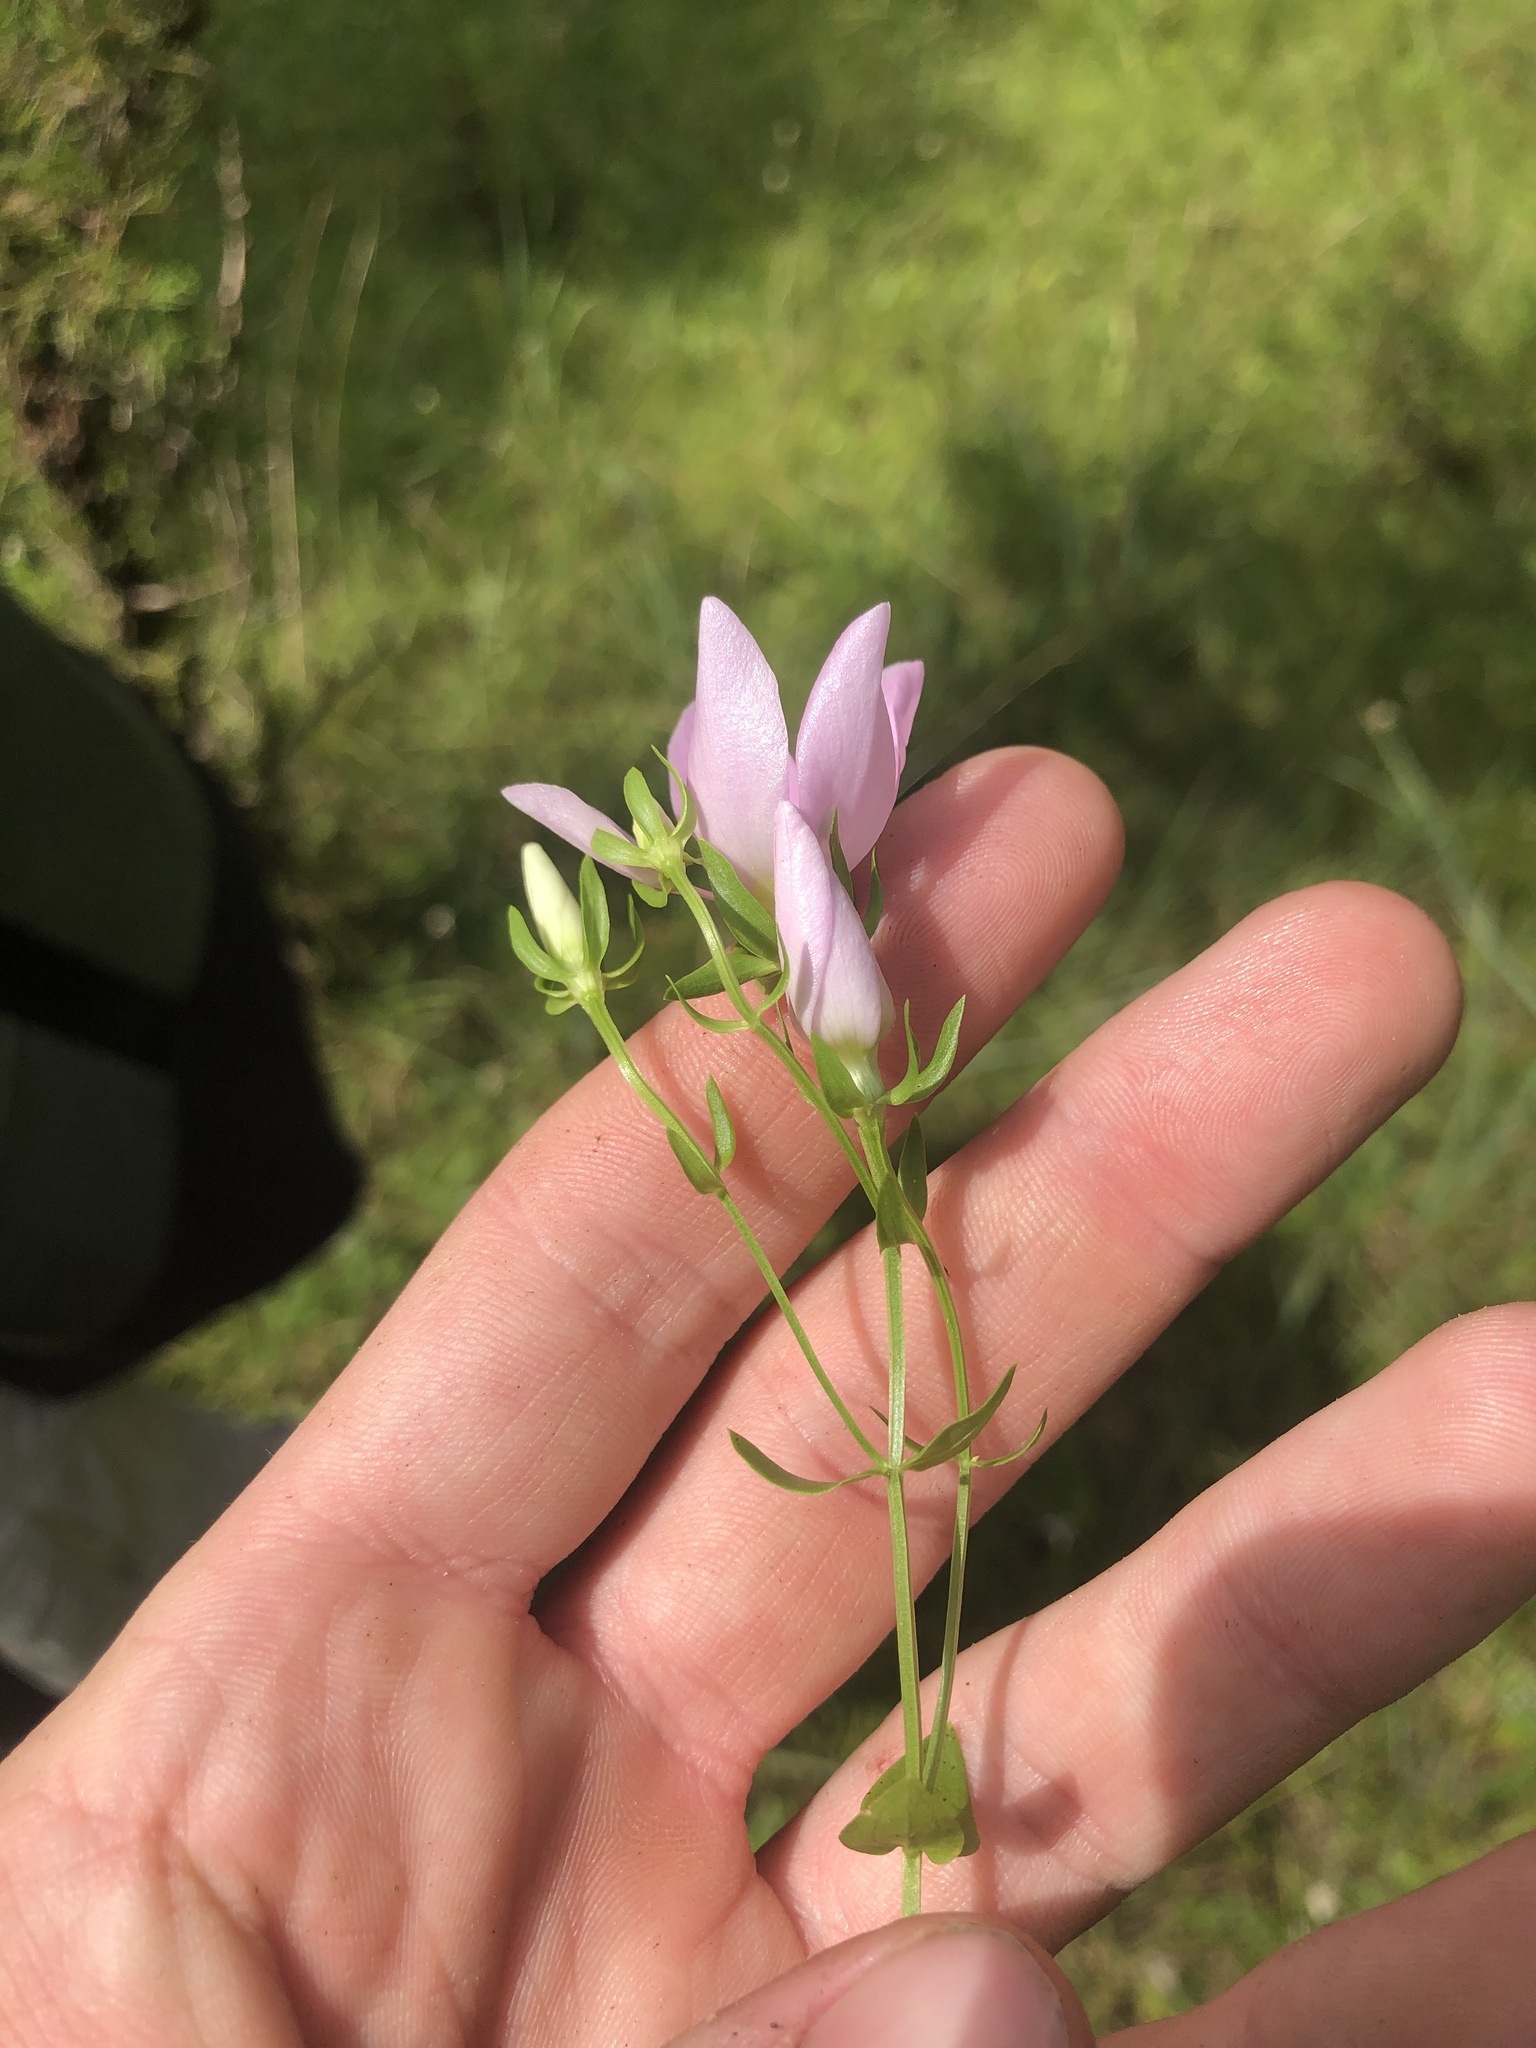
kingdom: Plantae
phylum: Tracheophyta
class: Magnoliopsida
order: Gentianales
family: Gentianaceae
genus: Sabatia
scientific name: Sabatia angularis
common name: Rose-pink
